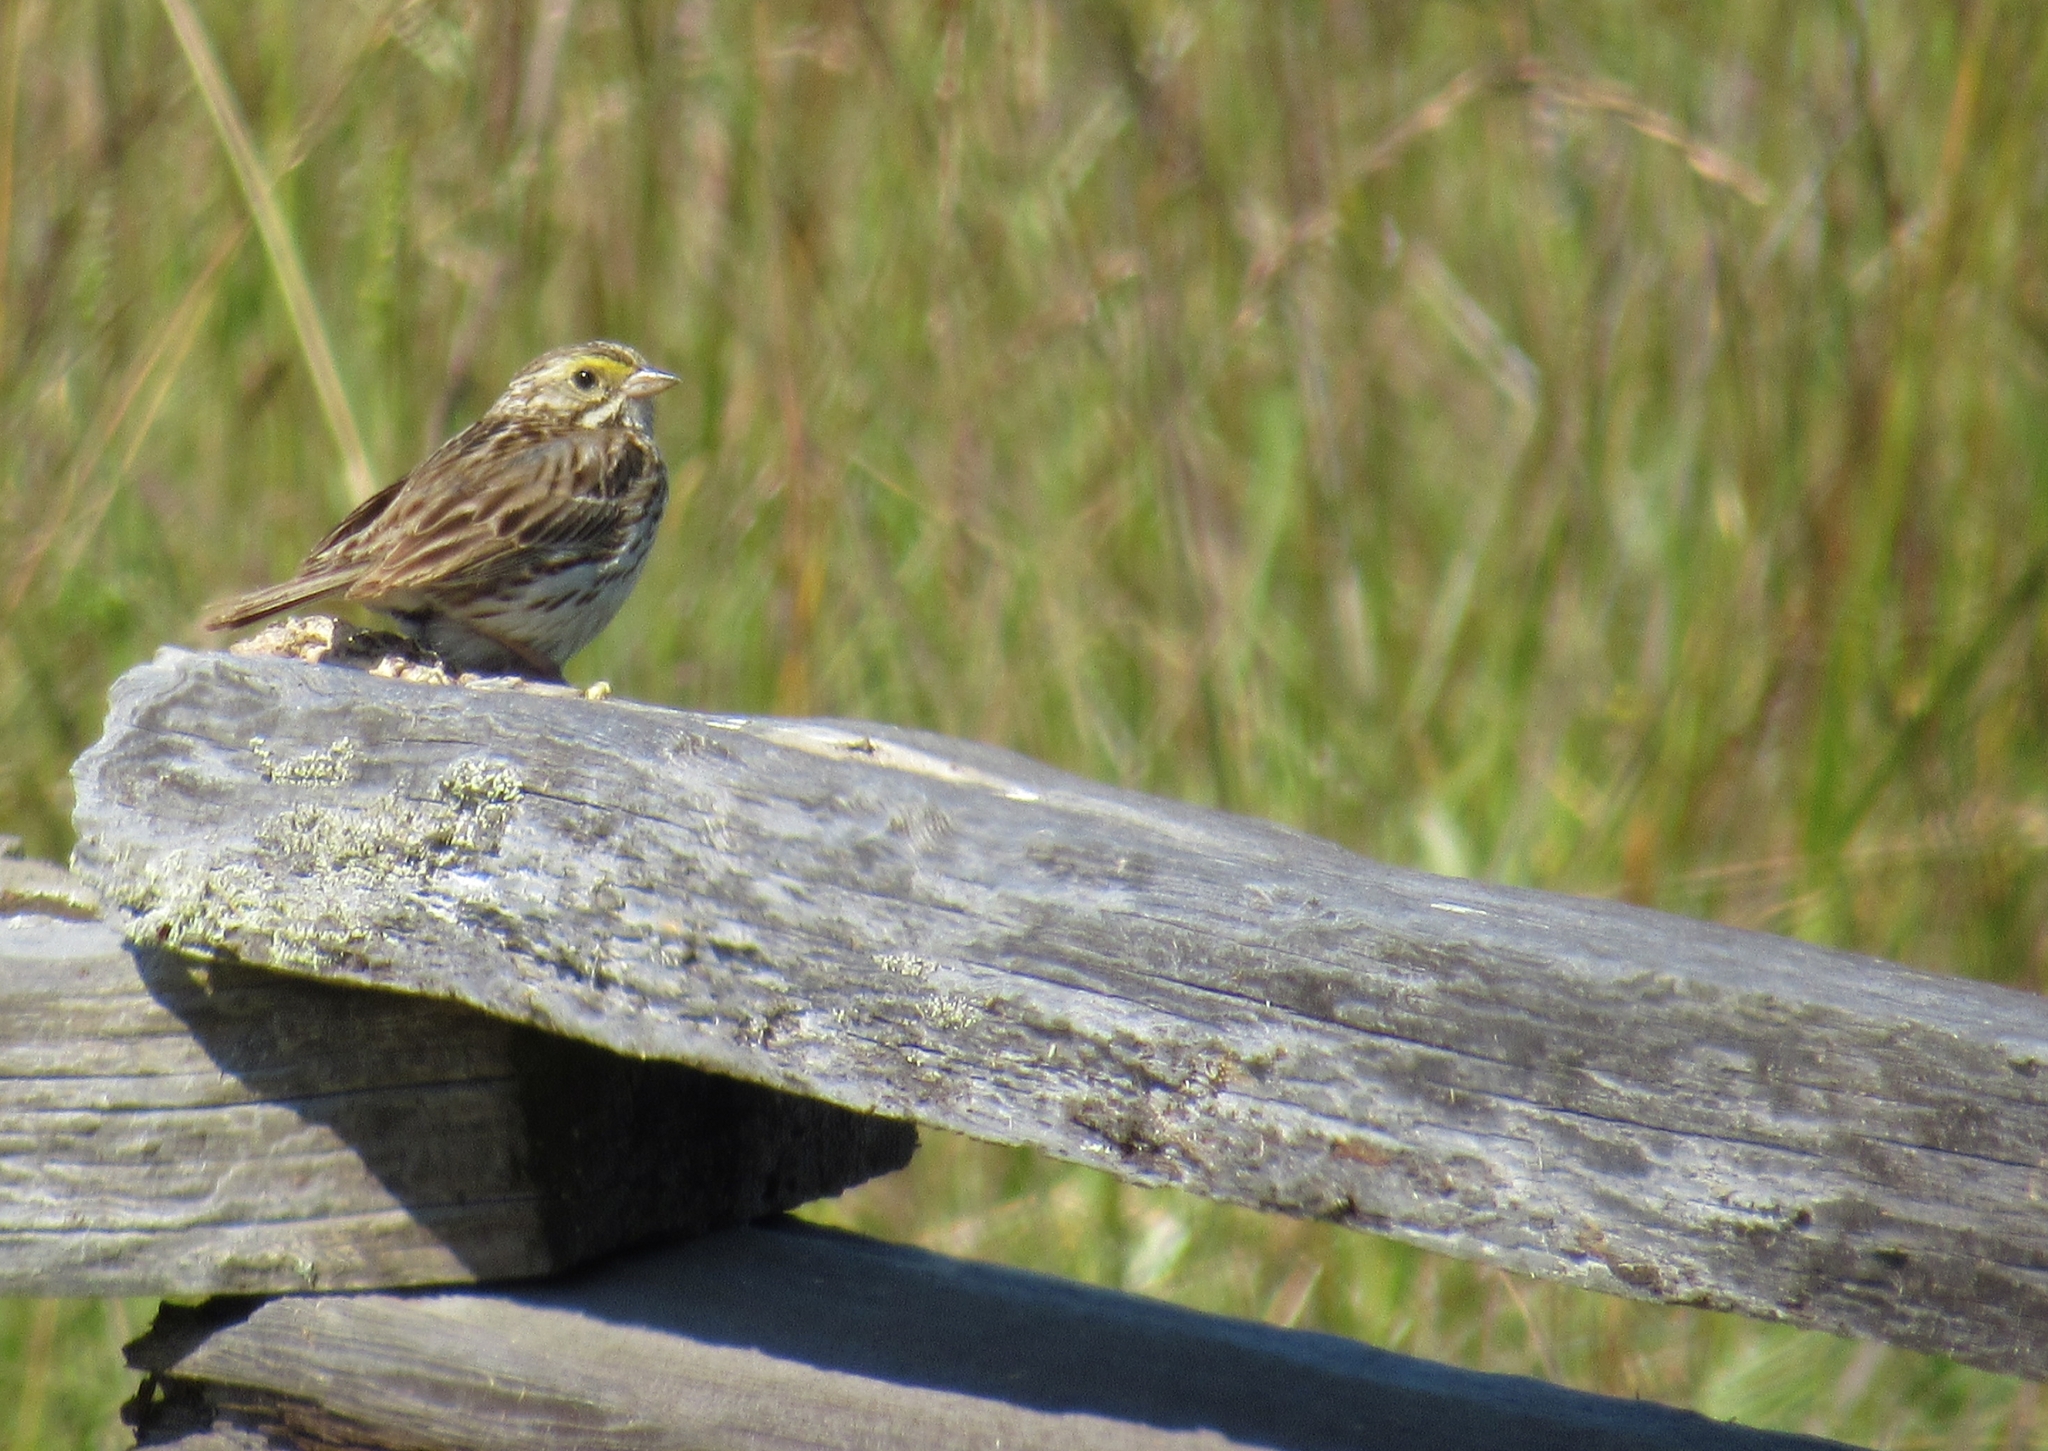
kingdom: Animalia
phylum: Chordata
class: Aves
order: Passeriformes
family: Passerellidae
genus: Passerculus
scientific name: Passerculus sandwichensis
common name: Savannah sparrow
